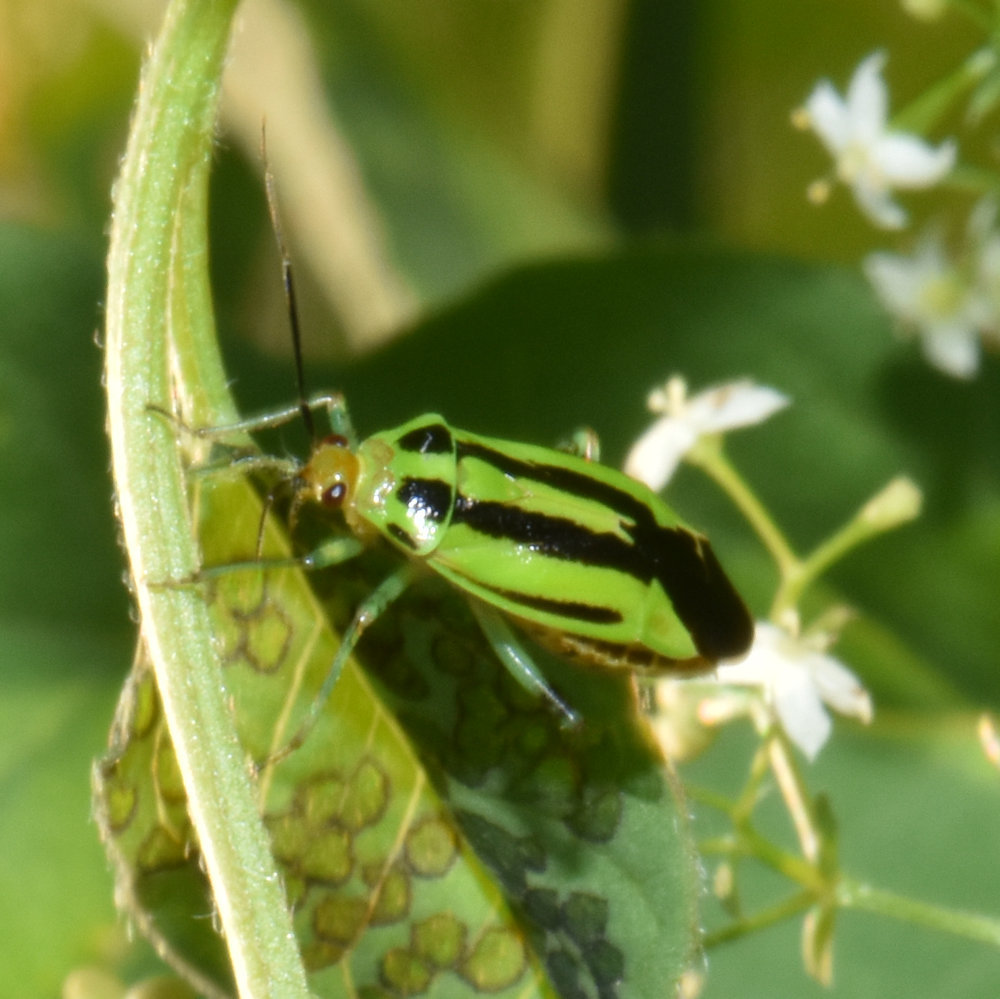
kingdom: Animalia
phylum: Arthropoda
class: Insecta
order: Hemiptera
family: Miridae
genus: Poecilocapsus
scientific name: Poecilocapsus lineatus
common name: Four-lined plant bug
